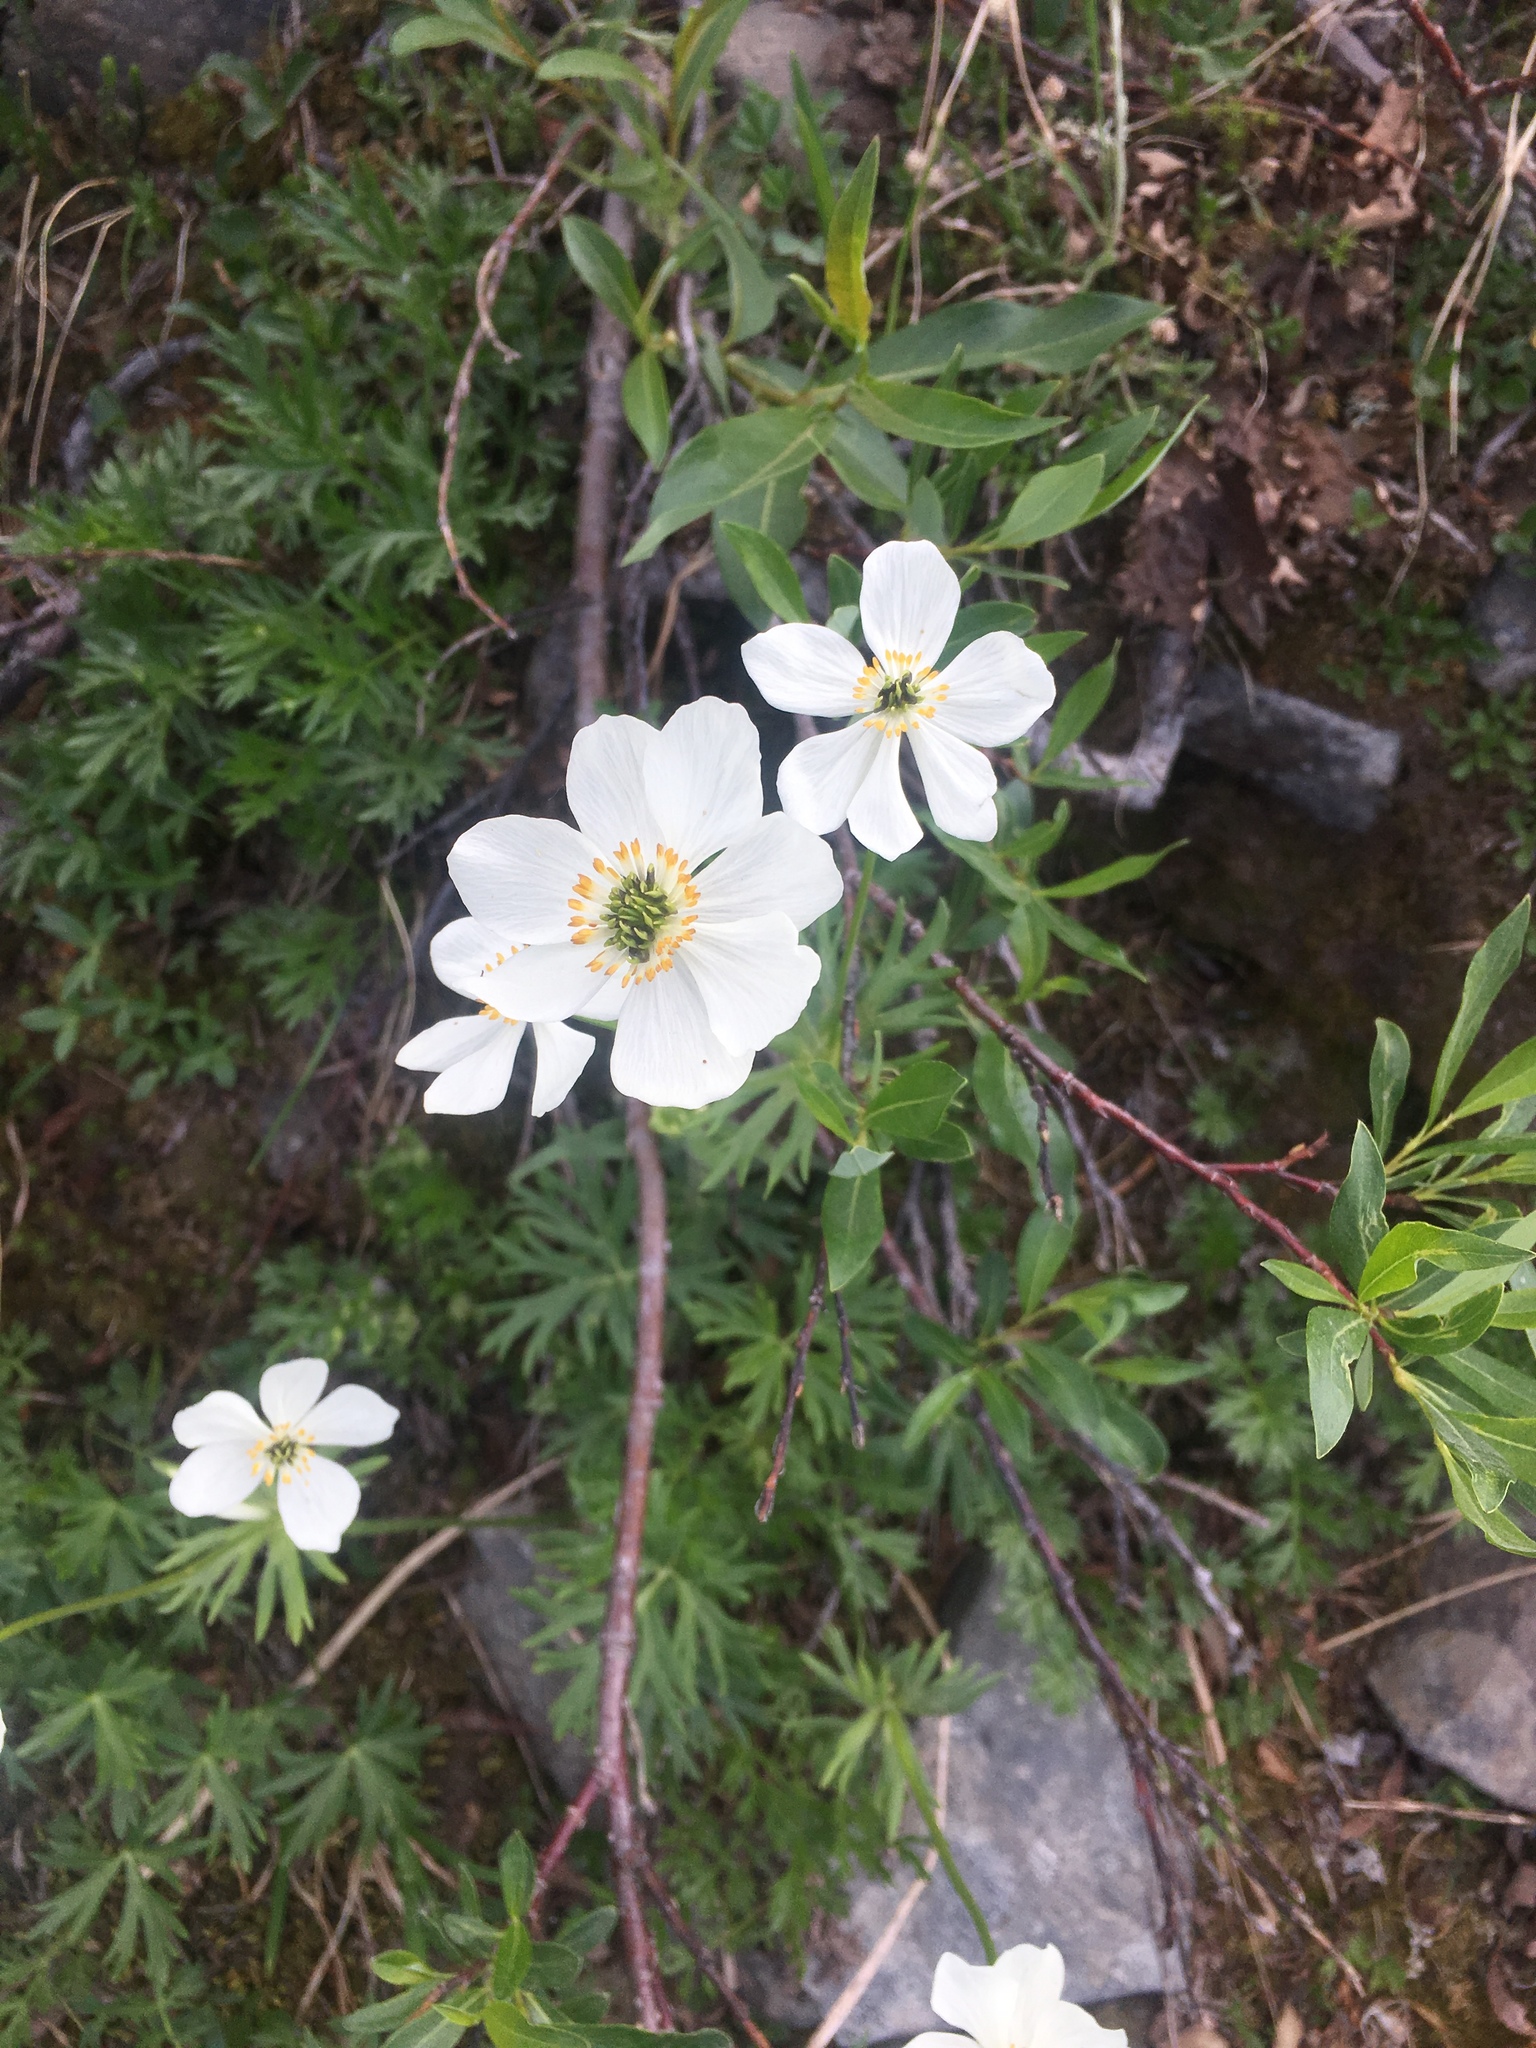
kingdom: Plantae
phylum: Tracheophyta
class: Magnoliopsida
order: Ranunculales
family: Ranunculaceae
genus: Anemonastrum
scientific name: Anemonastrum narcissiflorum
